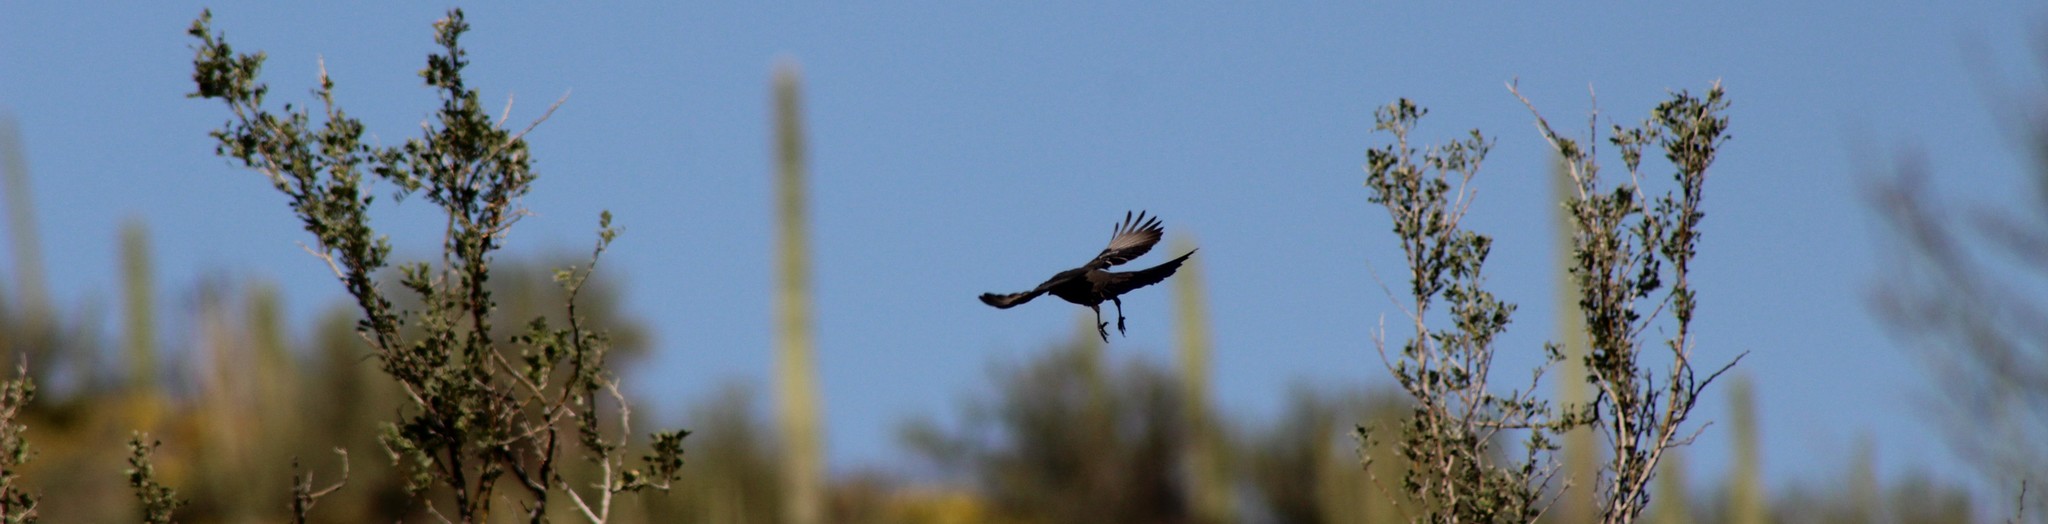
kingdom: Animalia
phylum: Chordata
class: Aves
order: Passeriformes
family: Ptilogonatidae
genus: Phainopepla
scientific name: Phainopepla nitens
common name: Phainopepla
